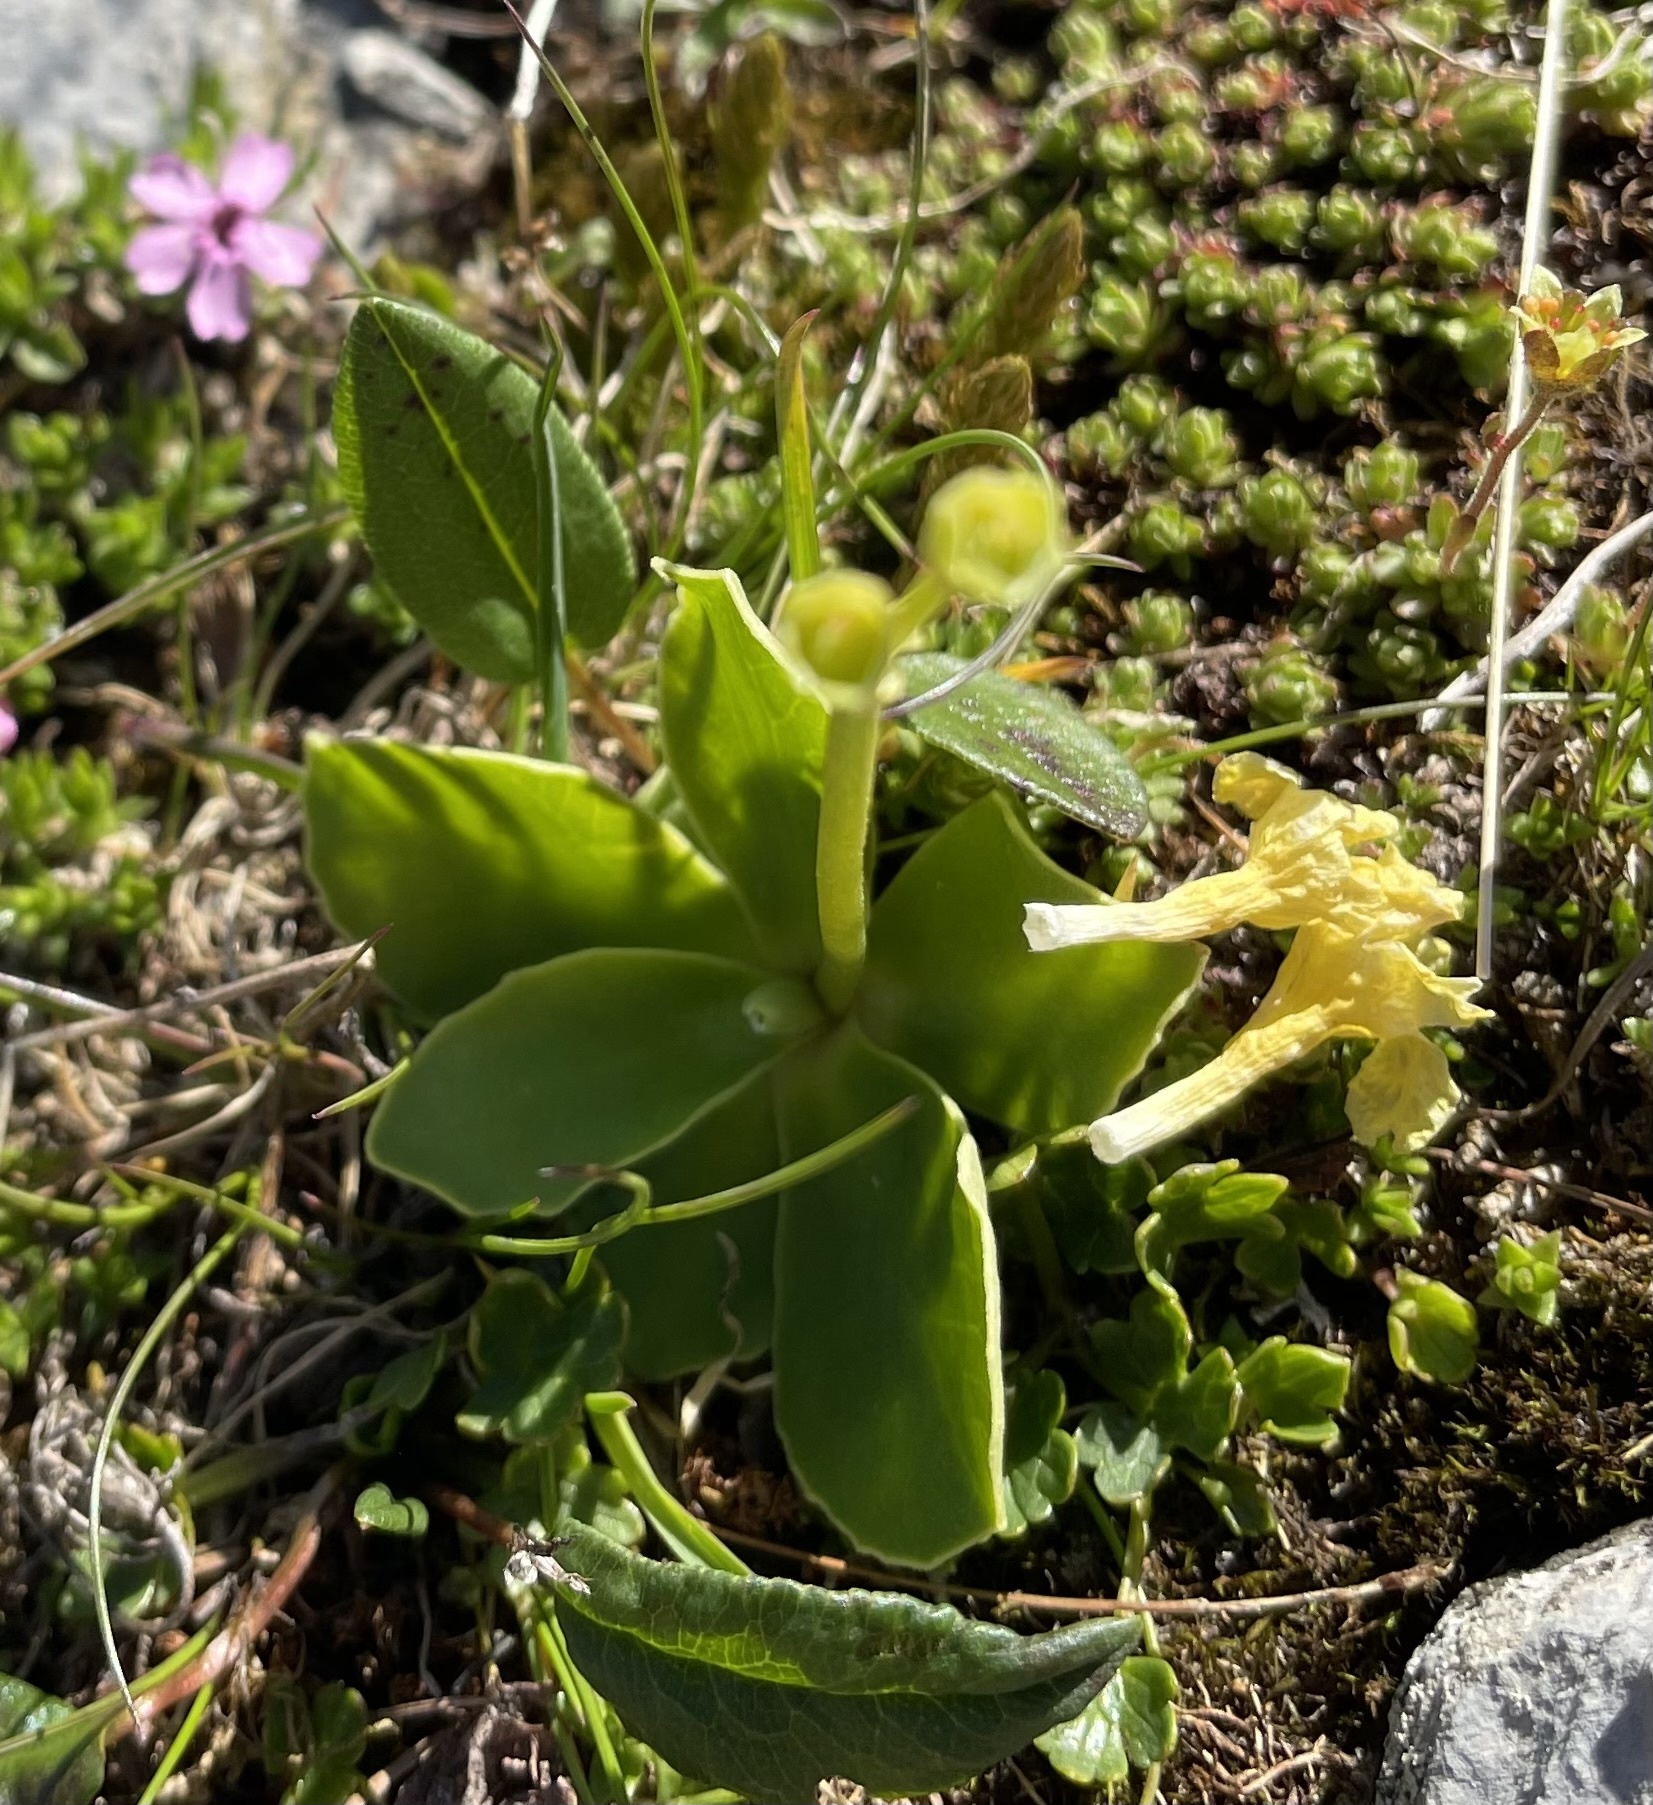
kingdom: Plantae
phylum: Tracheophyta
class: Magnoliopsida
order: Ericales
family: Primulaceae
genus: Primula
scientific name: Primula auricula
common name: Auricula
